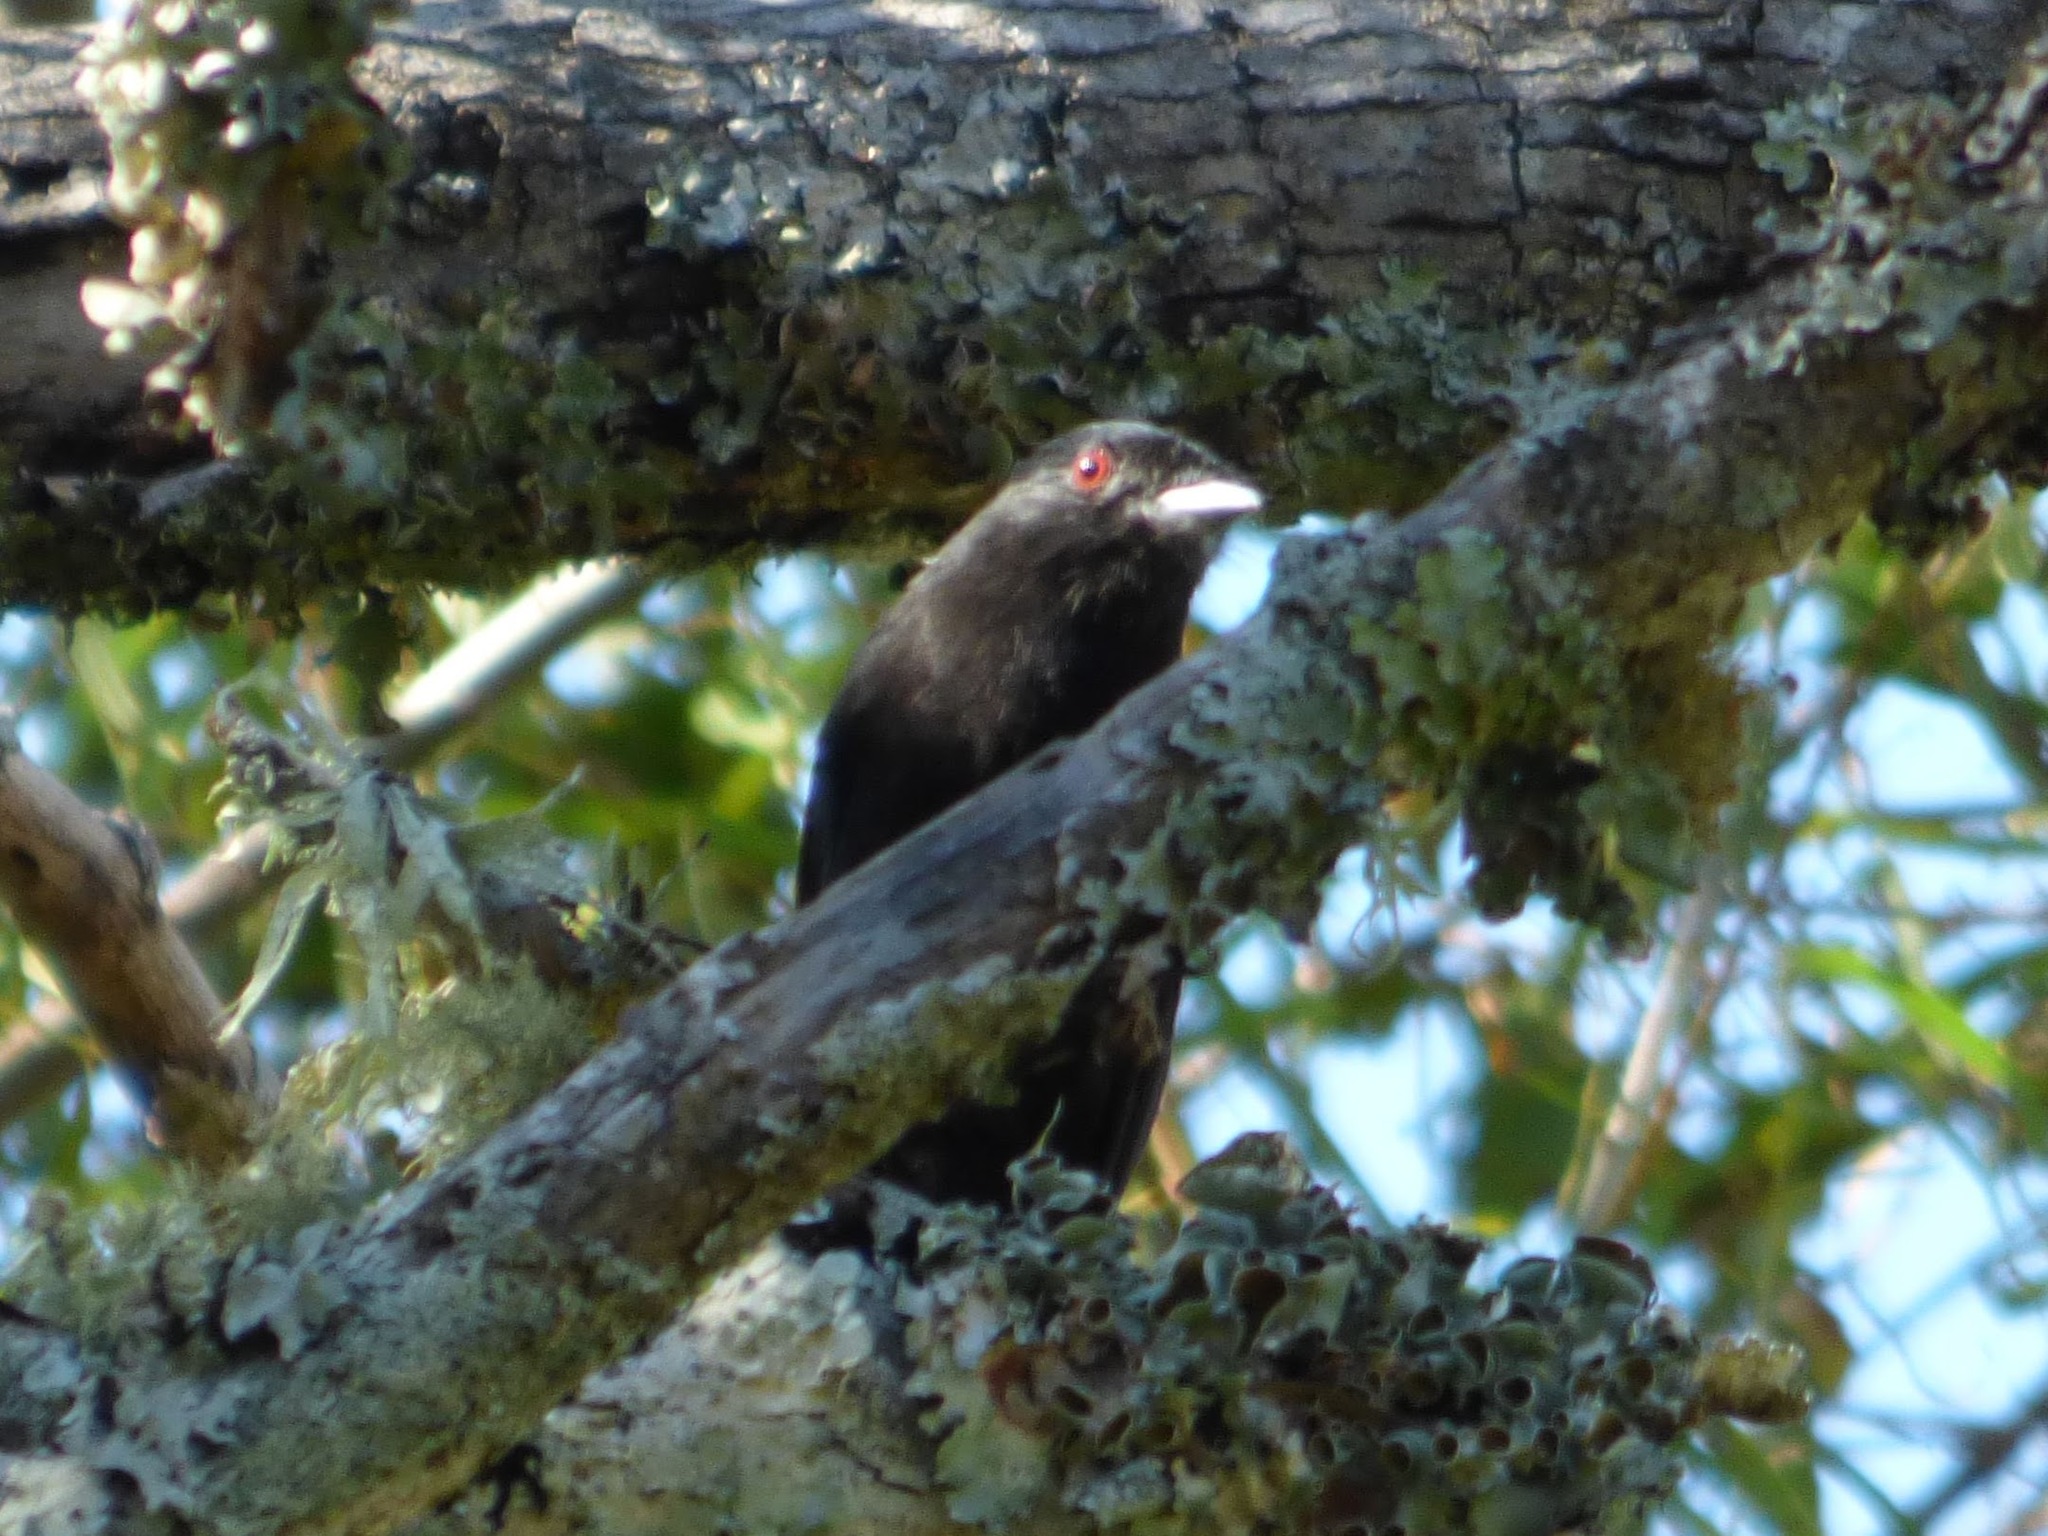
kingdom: Animalia
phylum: Chordata
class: Aves
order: Passeriformes
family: Tyrannidae
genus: Knipolegus
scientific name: Knipolegus cyanirostris
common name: Blue-billed black tyrant
